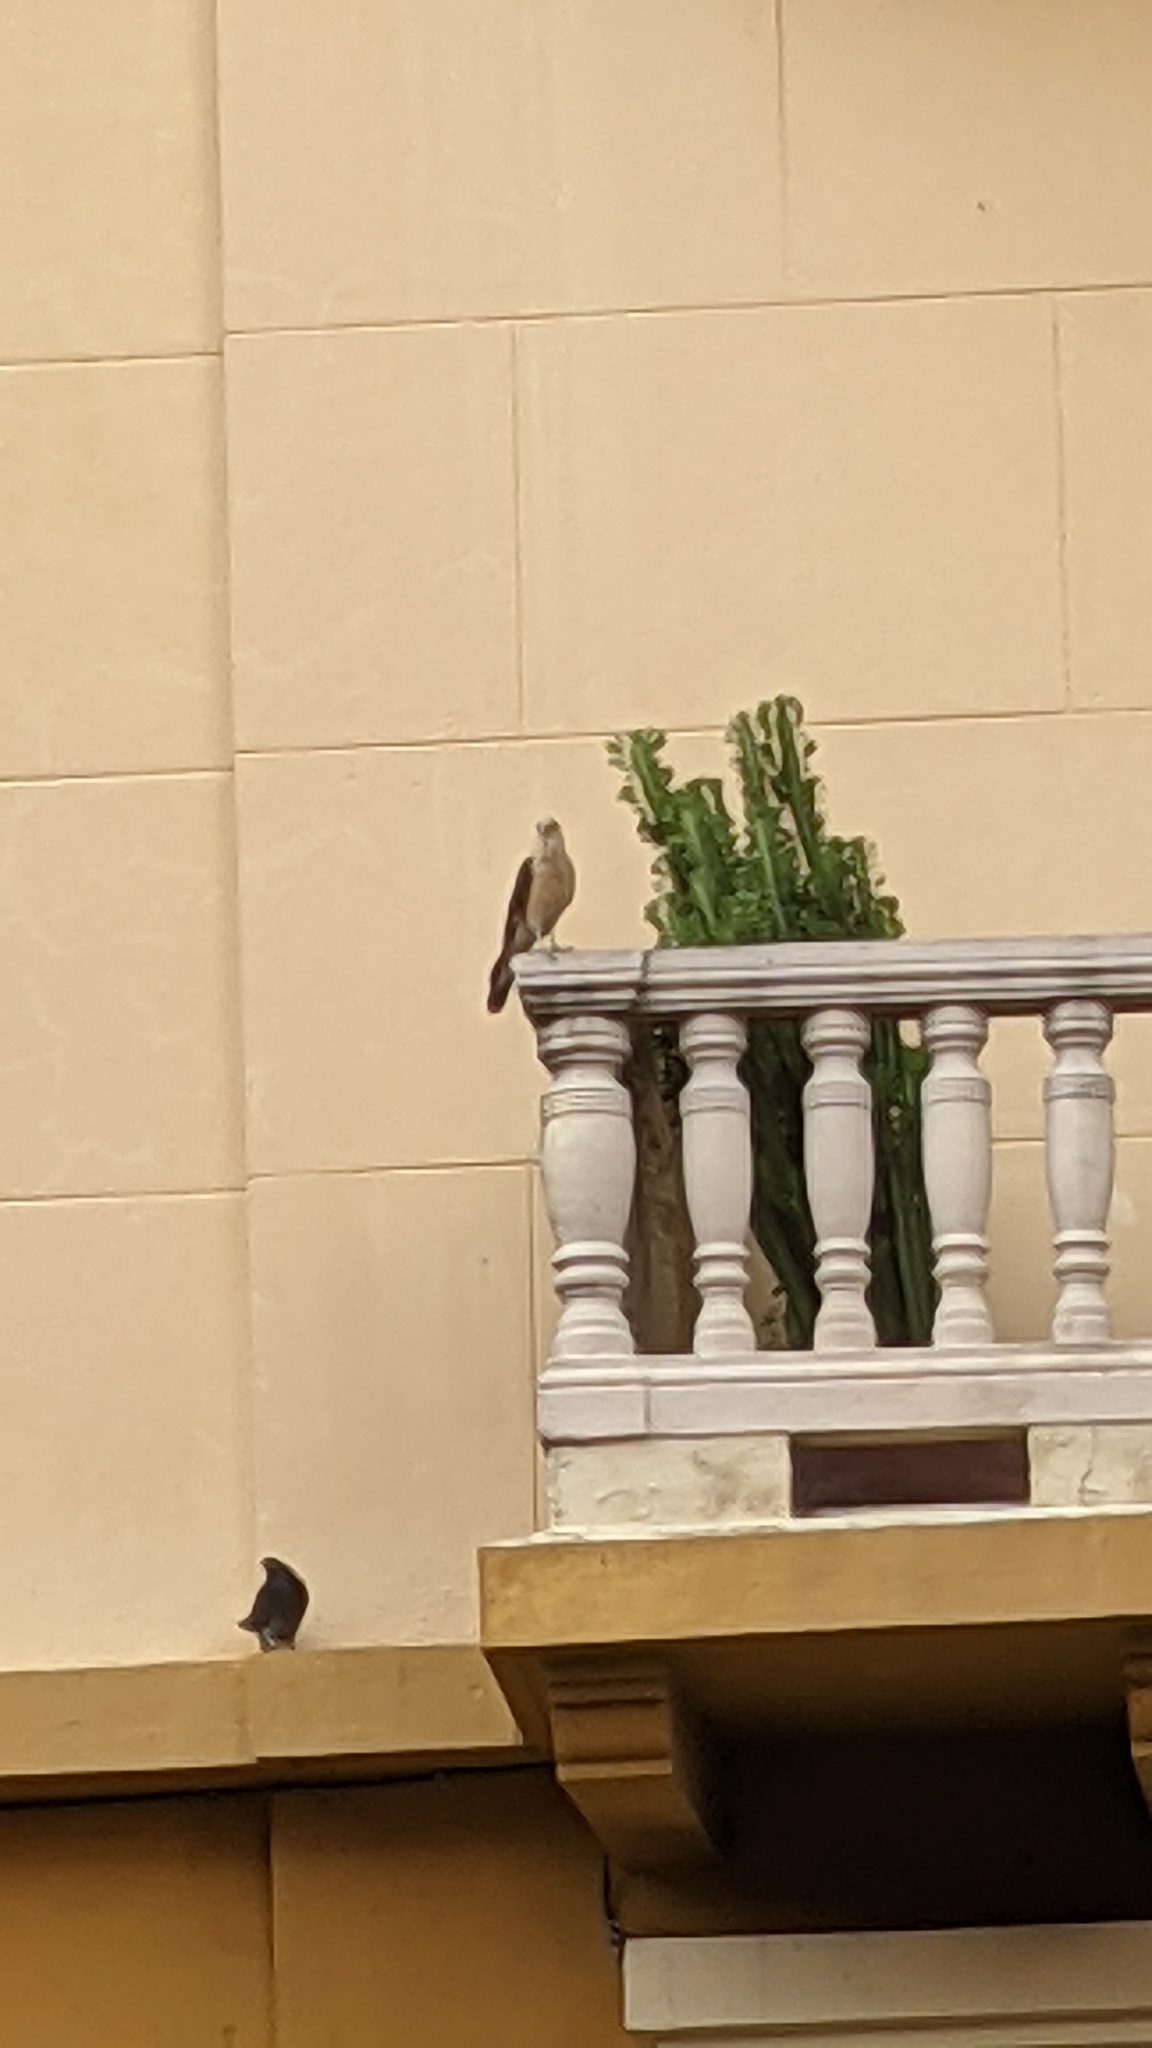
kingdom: Animalia
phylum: Chordata
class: Aves
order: Falconiformes
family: Falconidae
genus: Daptrius
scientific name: Daptrius
